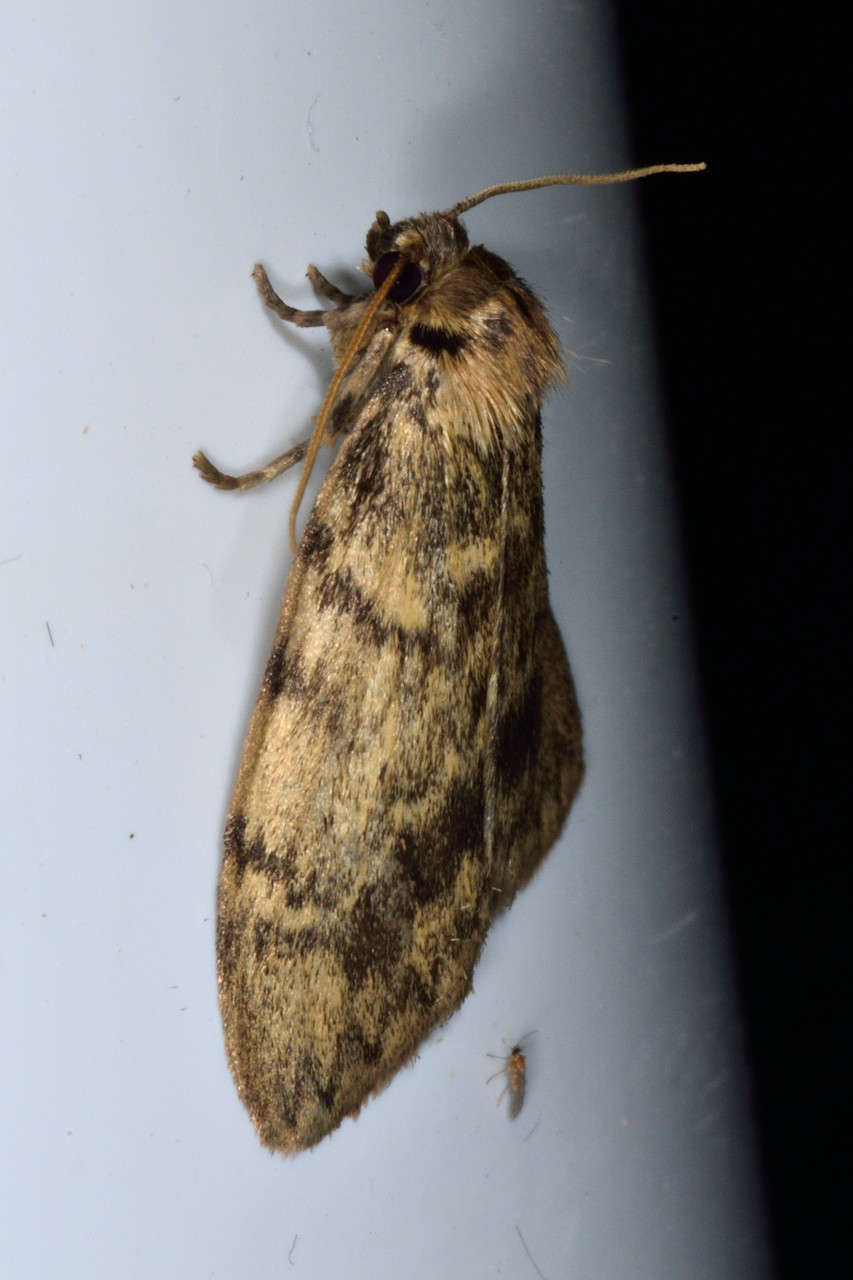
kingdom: Animalia
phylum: Arthropoda
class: Insecta
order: Lepidoptera
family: Erebidae
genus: Hectobrocha
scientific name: Hectobrocha adoxa
